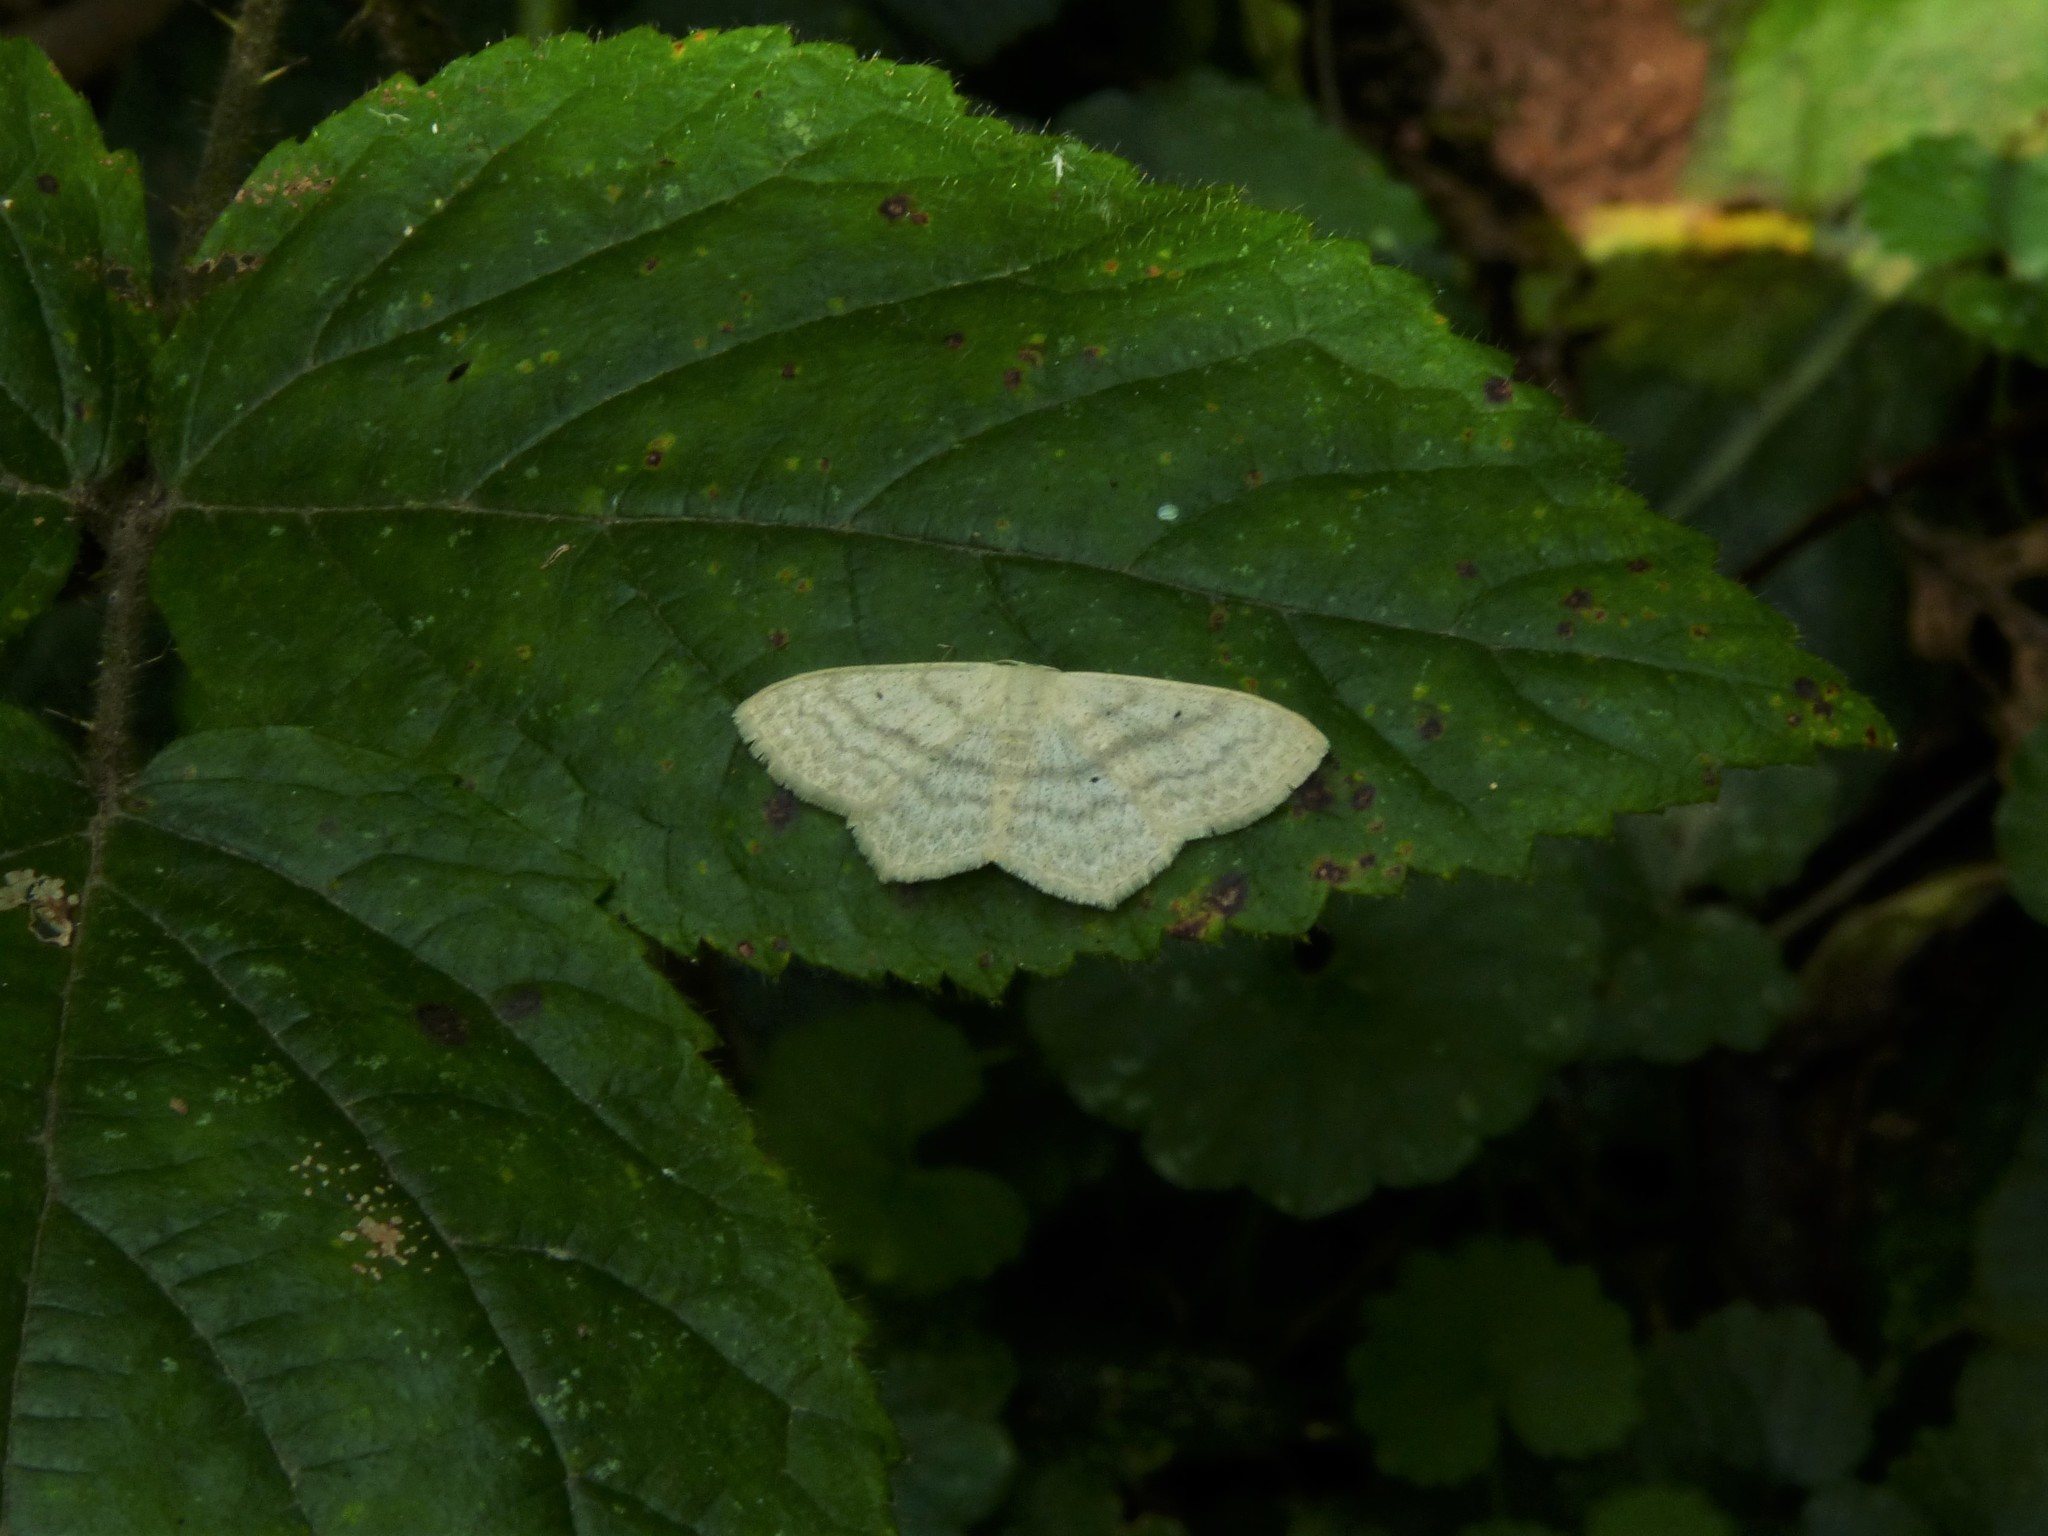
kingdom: Animalia
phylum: Arthropoda
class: Insecta
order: Lepidoptera
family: Geometridae
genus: Scopula
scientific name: Scopula nigropunctata
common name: Sub-angled wave
